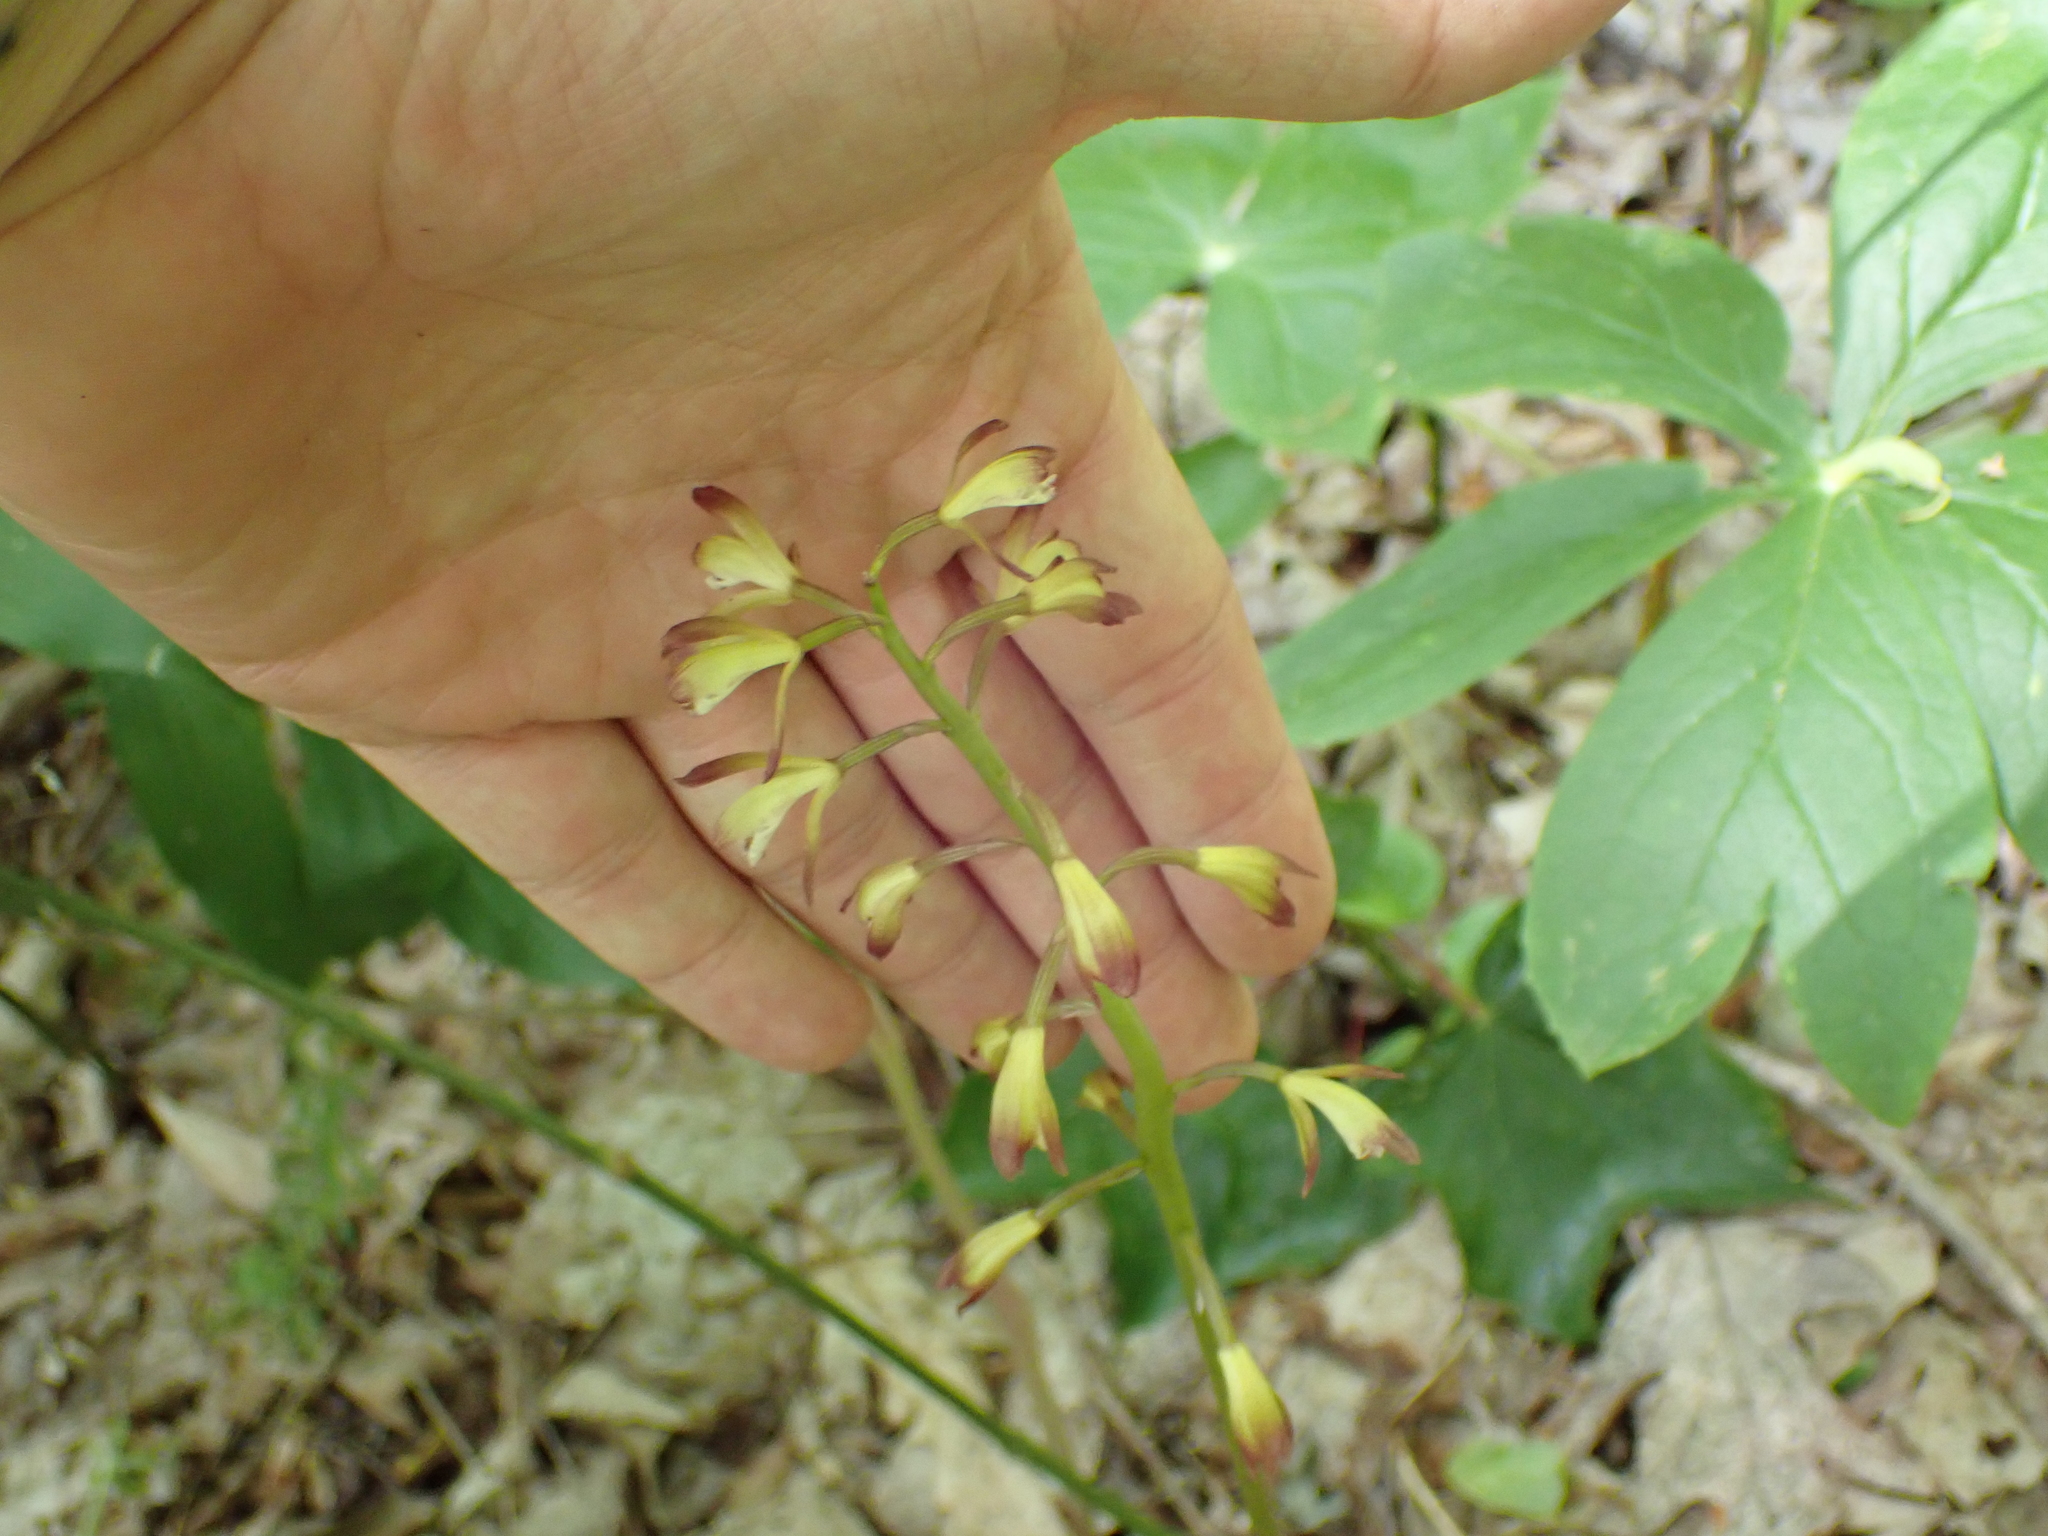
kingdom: Plantae
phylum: Tracheophyta
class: Liliopsida
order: Asparagales
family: Orchidaceae
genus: Aplectrum
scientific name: Aplectrum hyemale
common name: Adam-and-eve
